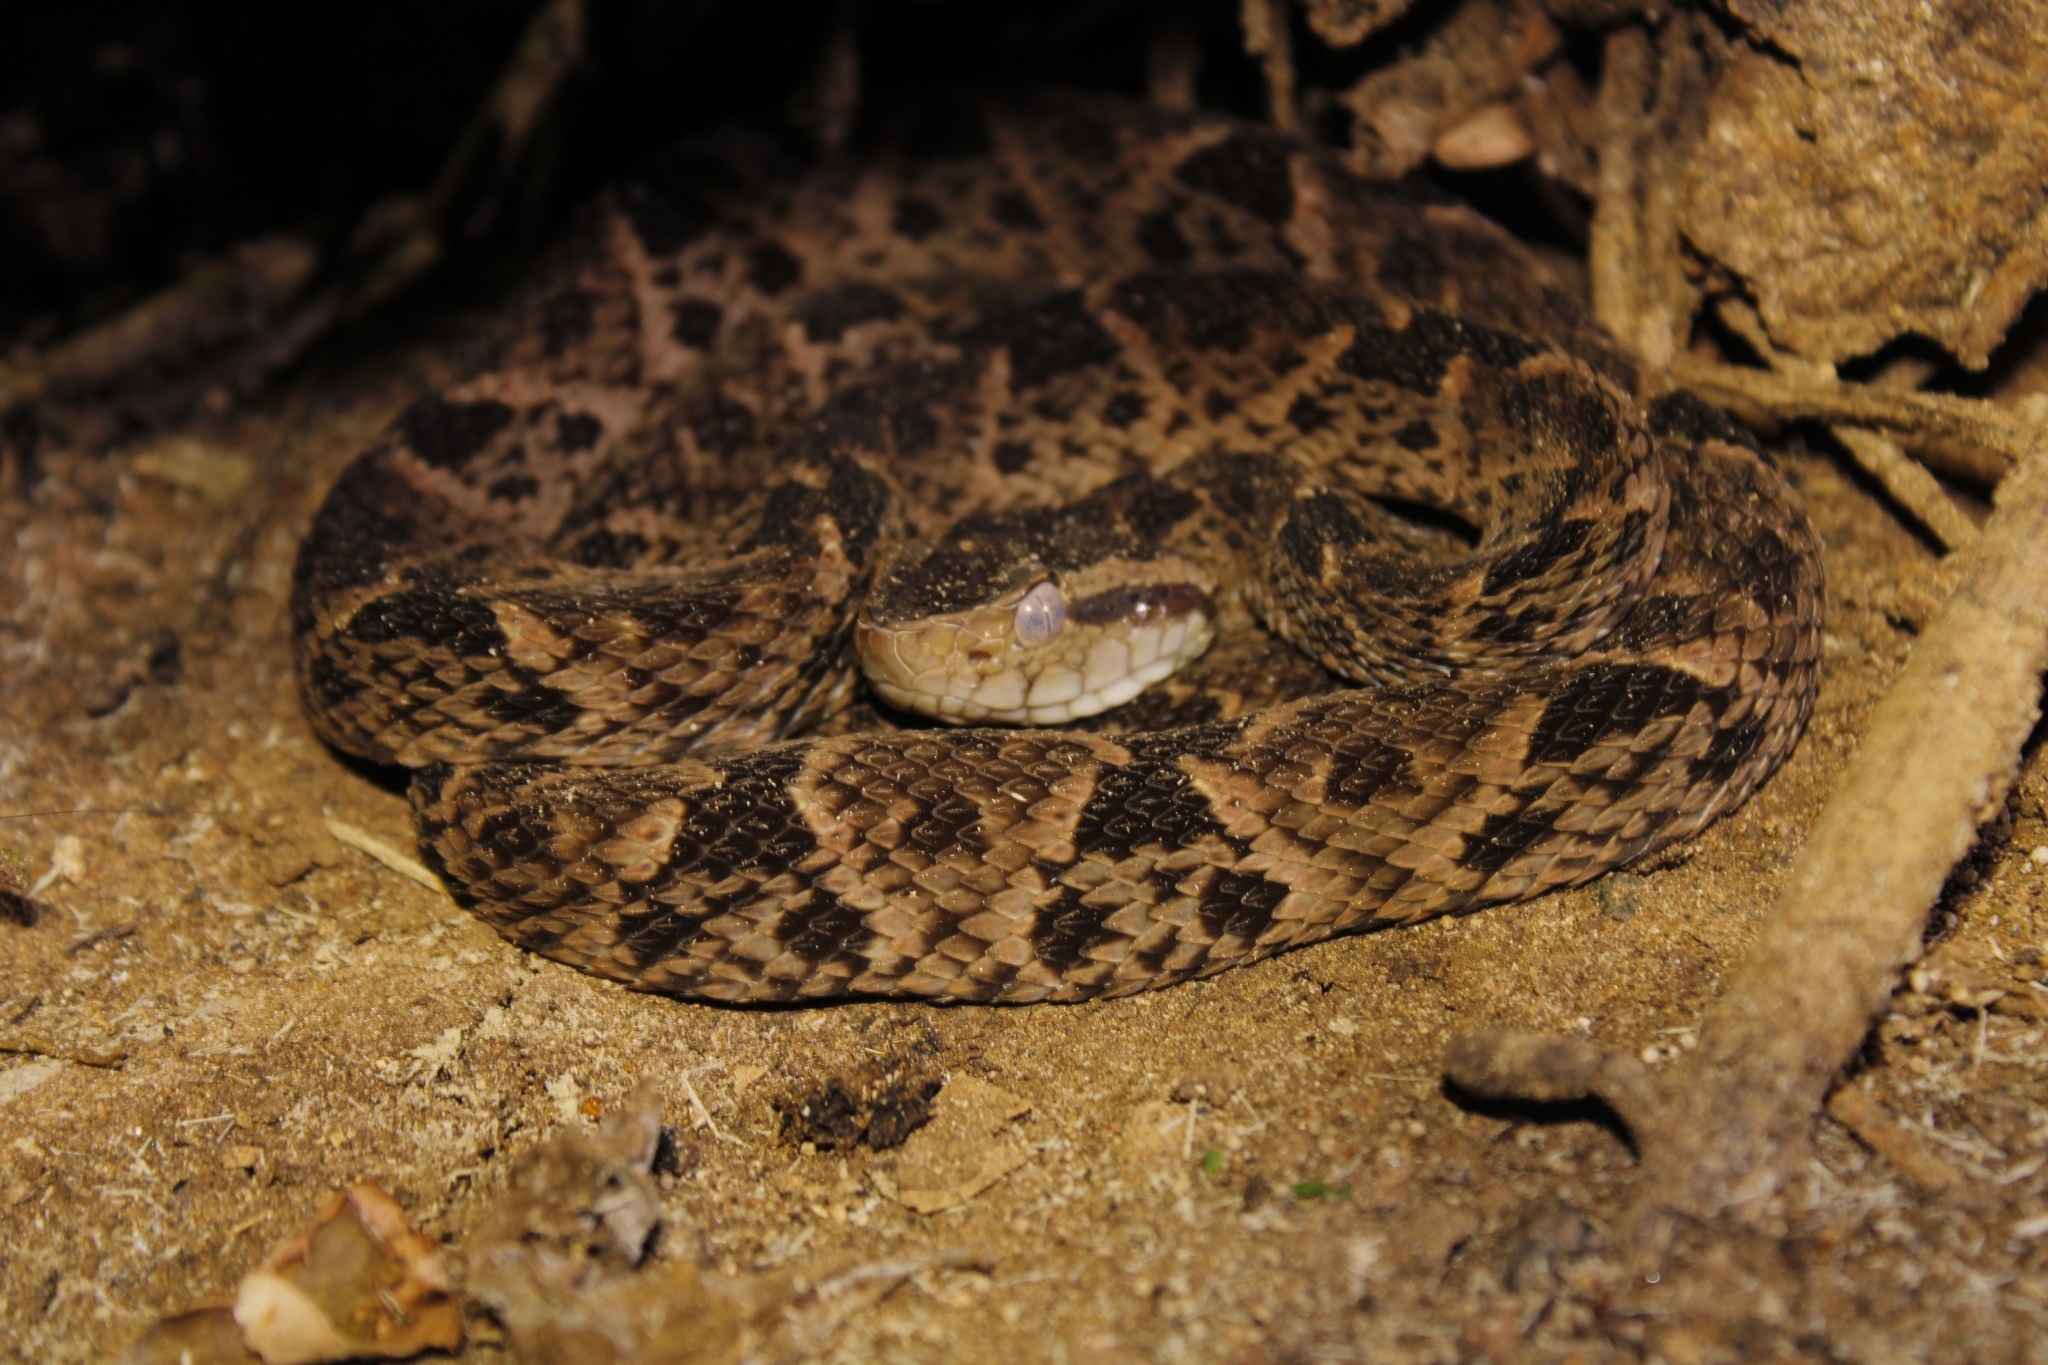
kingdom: Animalia
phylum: Chordata
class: Squamata
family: Viperidae
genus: Bothrops
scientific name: Bothrops asper
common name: Terciopelo
